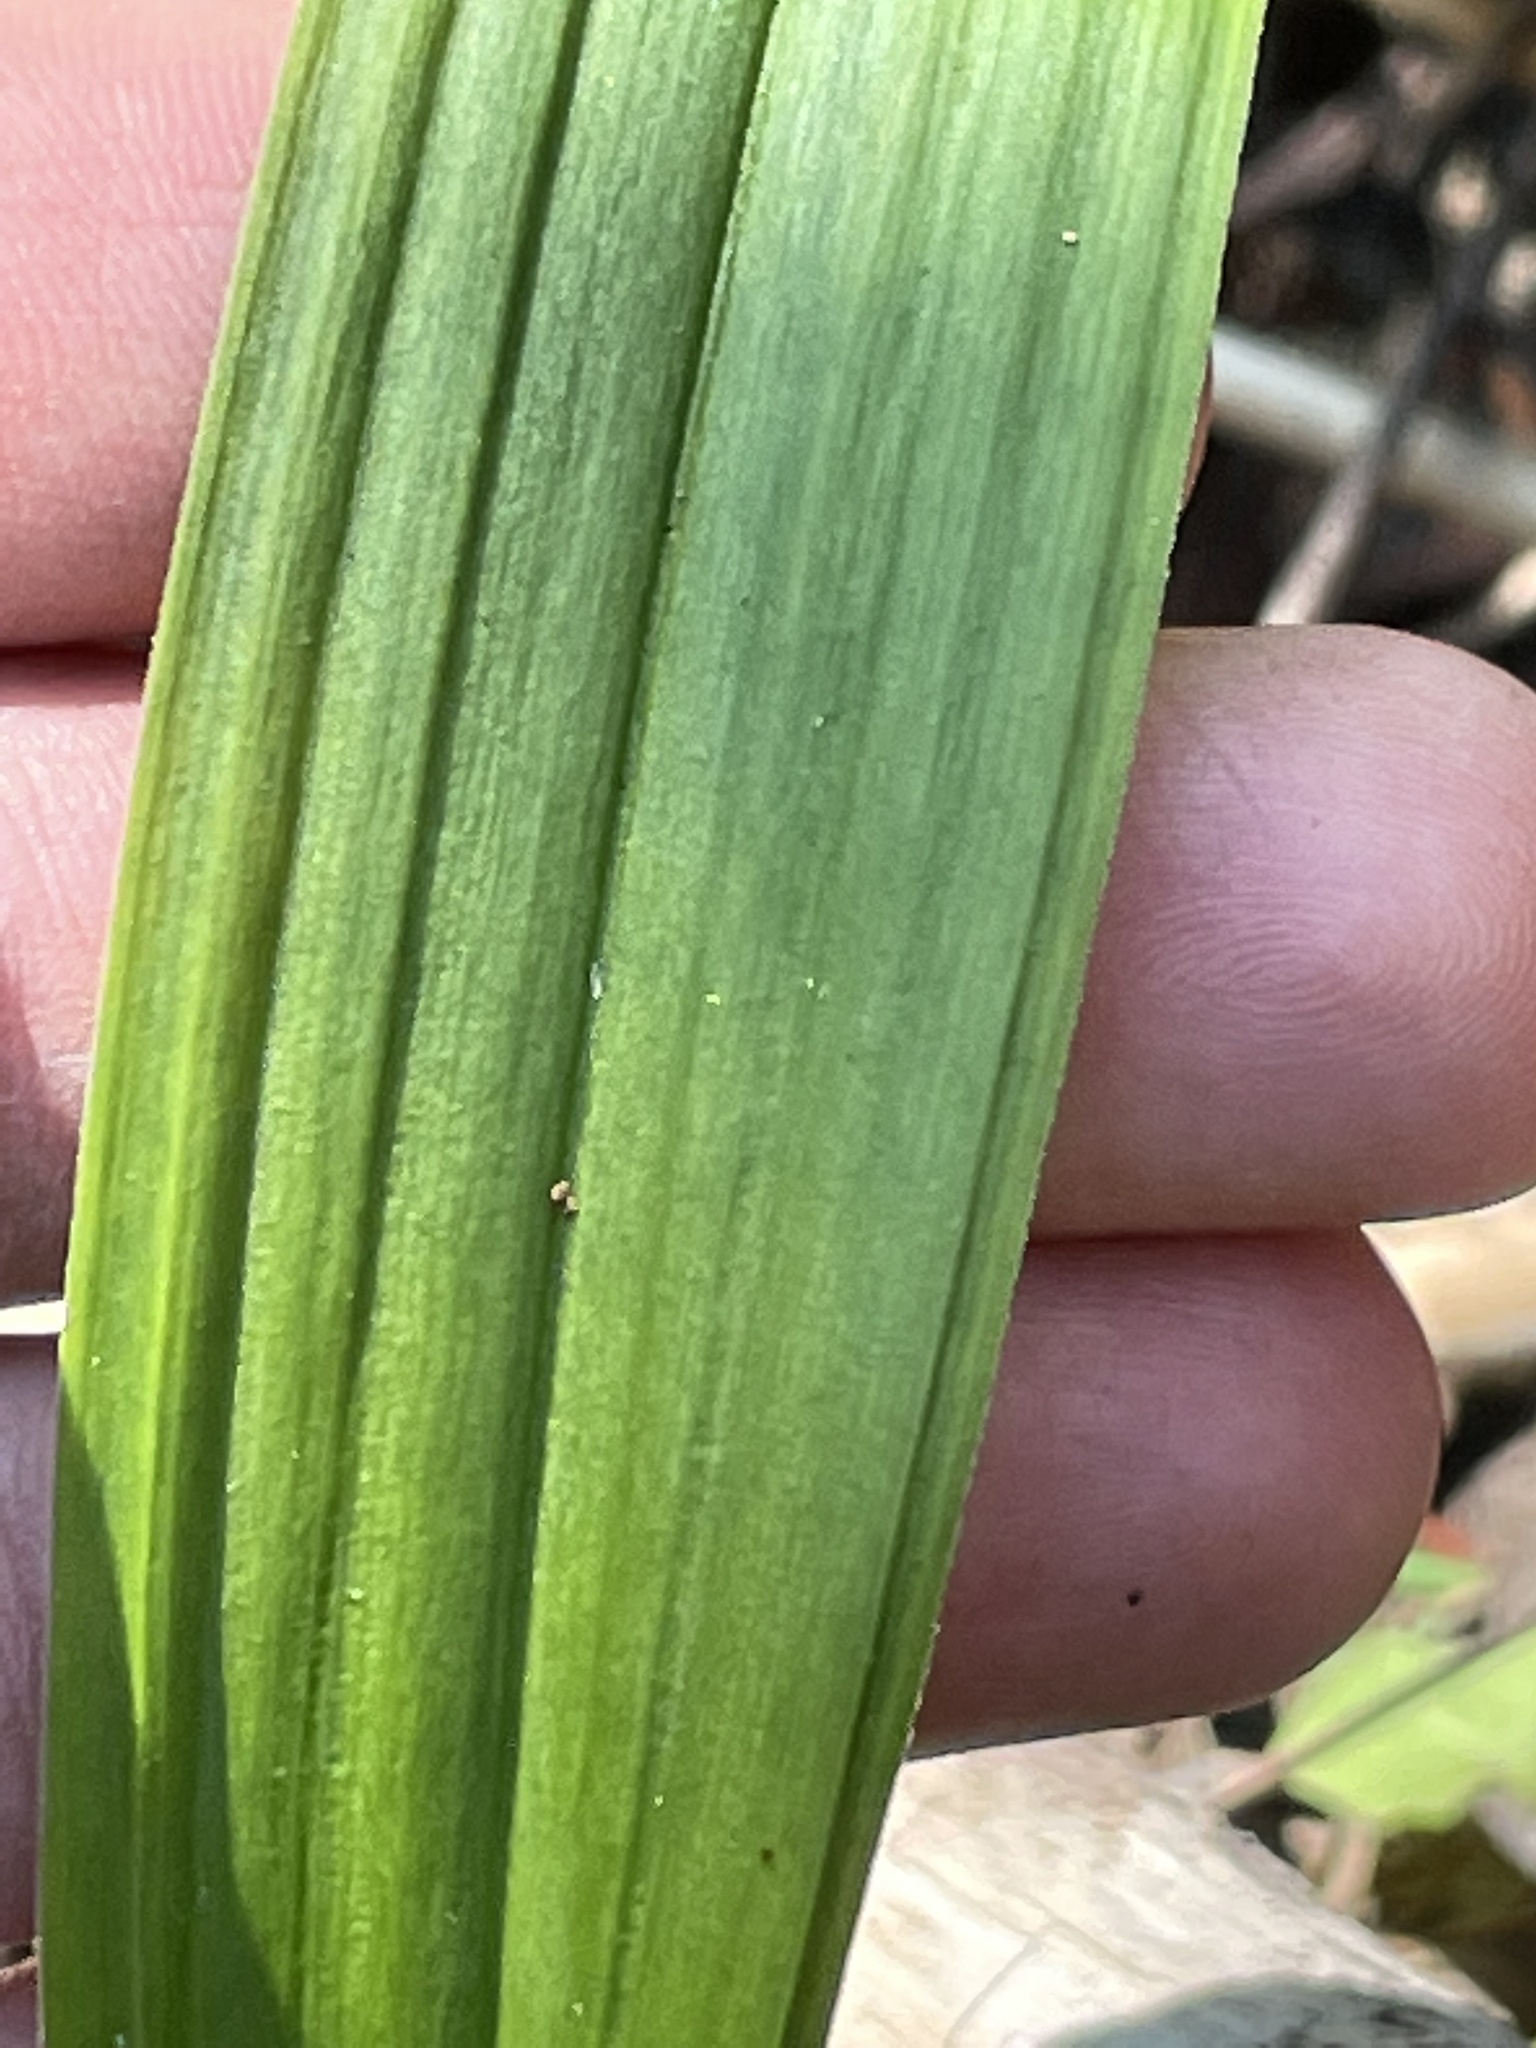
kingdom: Plantae
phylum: Tracheophyta
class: Liliopsida
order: Liliales
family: Melanthiaceae
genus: Anticlea
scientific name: Anticlea occidentalis
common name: Bronze-bells
